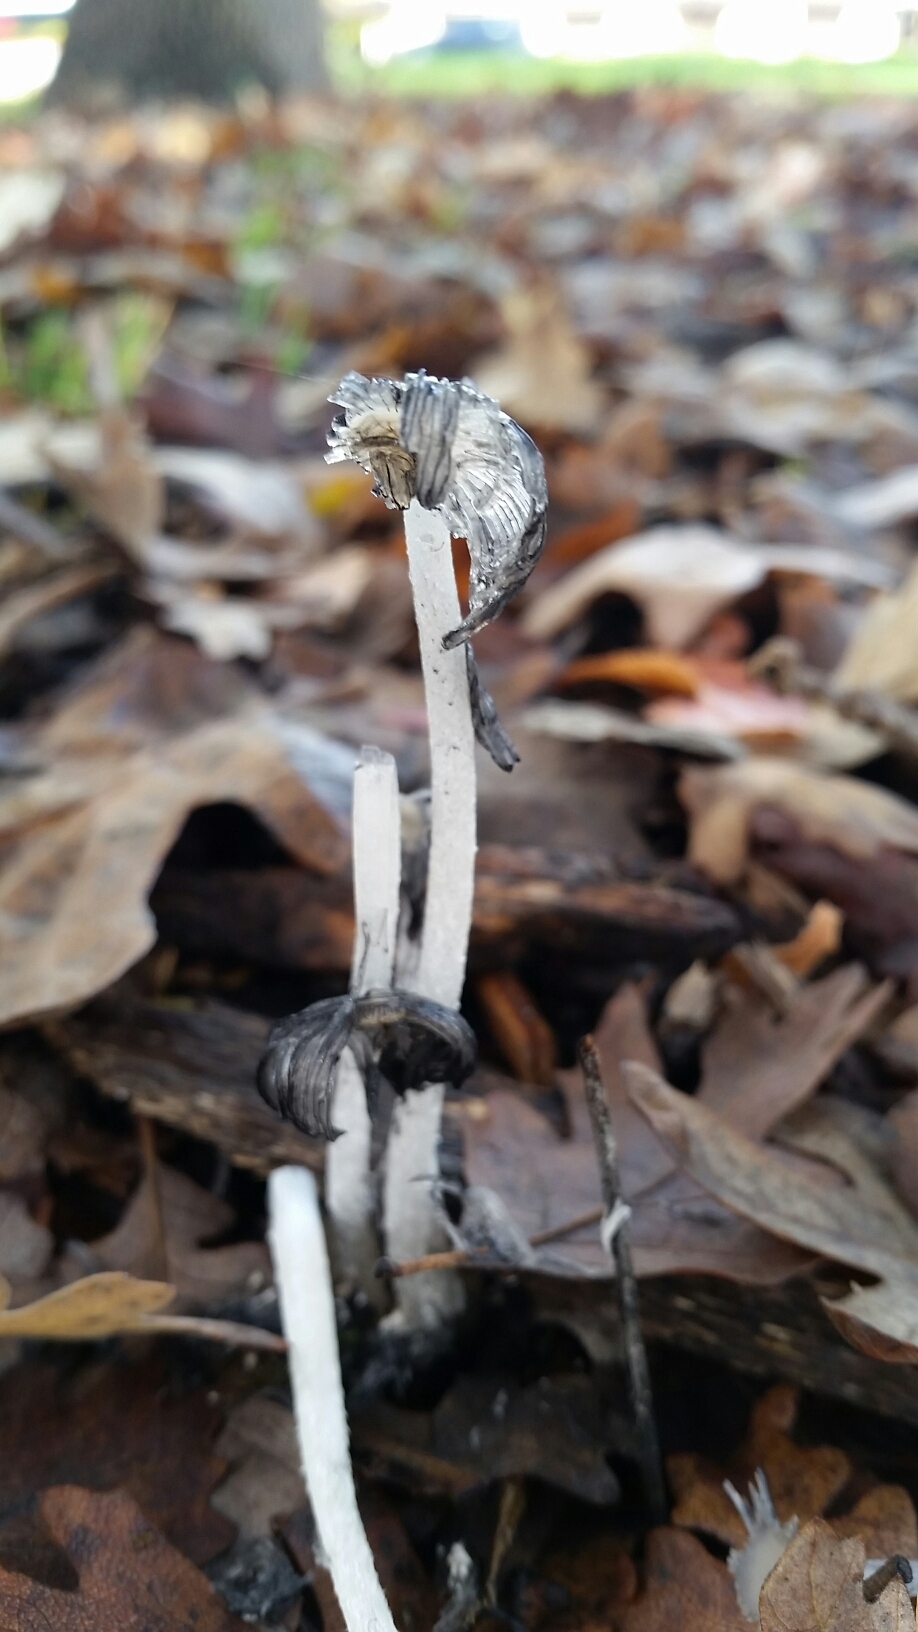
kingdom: Fungi
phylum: Basidiomycota
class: Agaricomycetes
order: Agaricales
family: Psathyrellaceae
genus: Coprinopsis
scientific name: Coprinopsis lagopus
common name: Hare'sfoot inkcap
